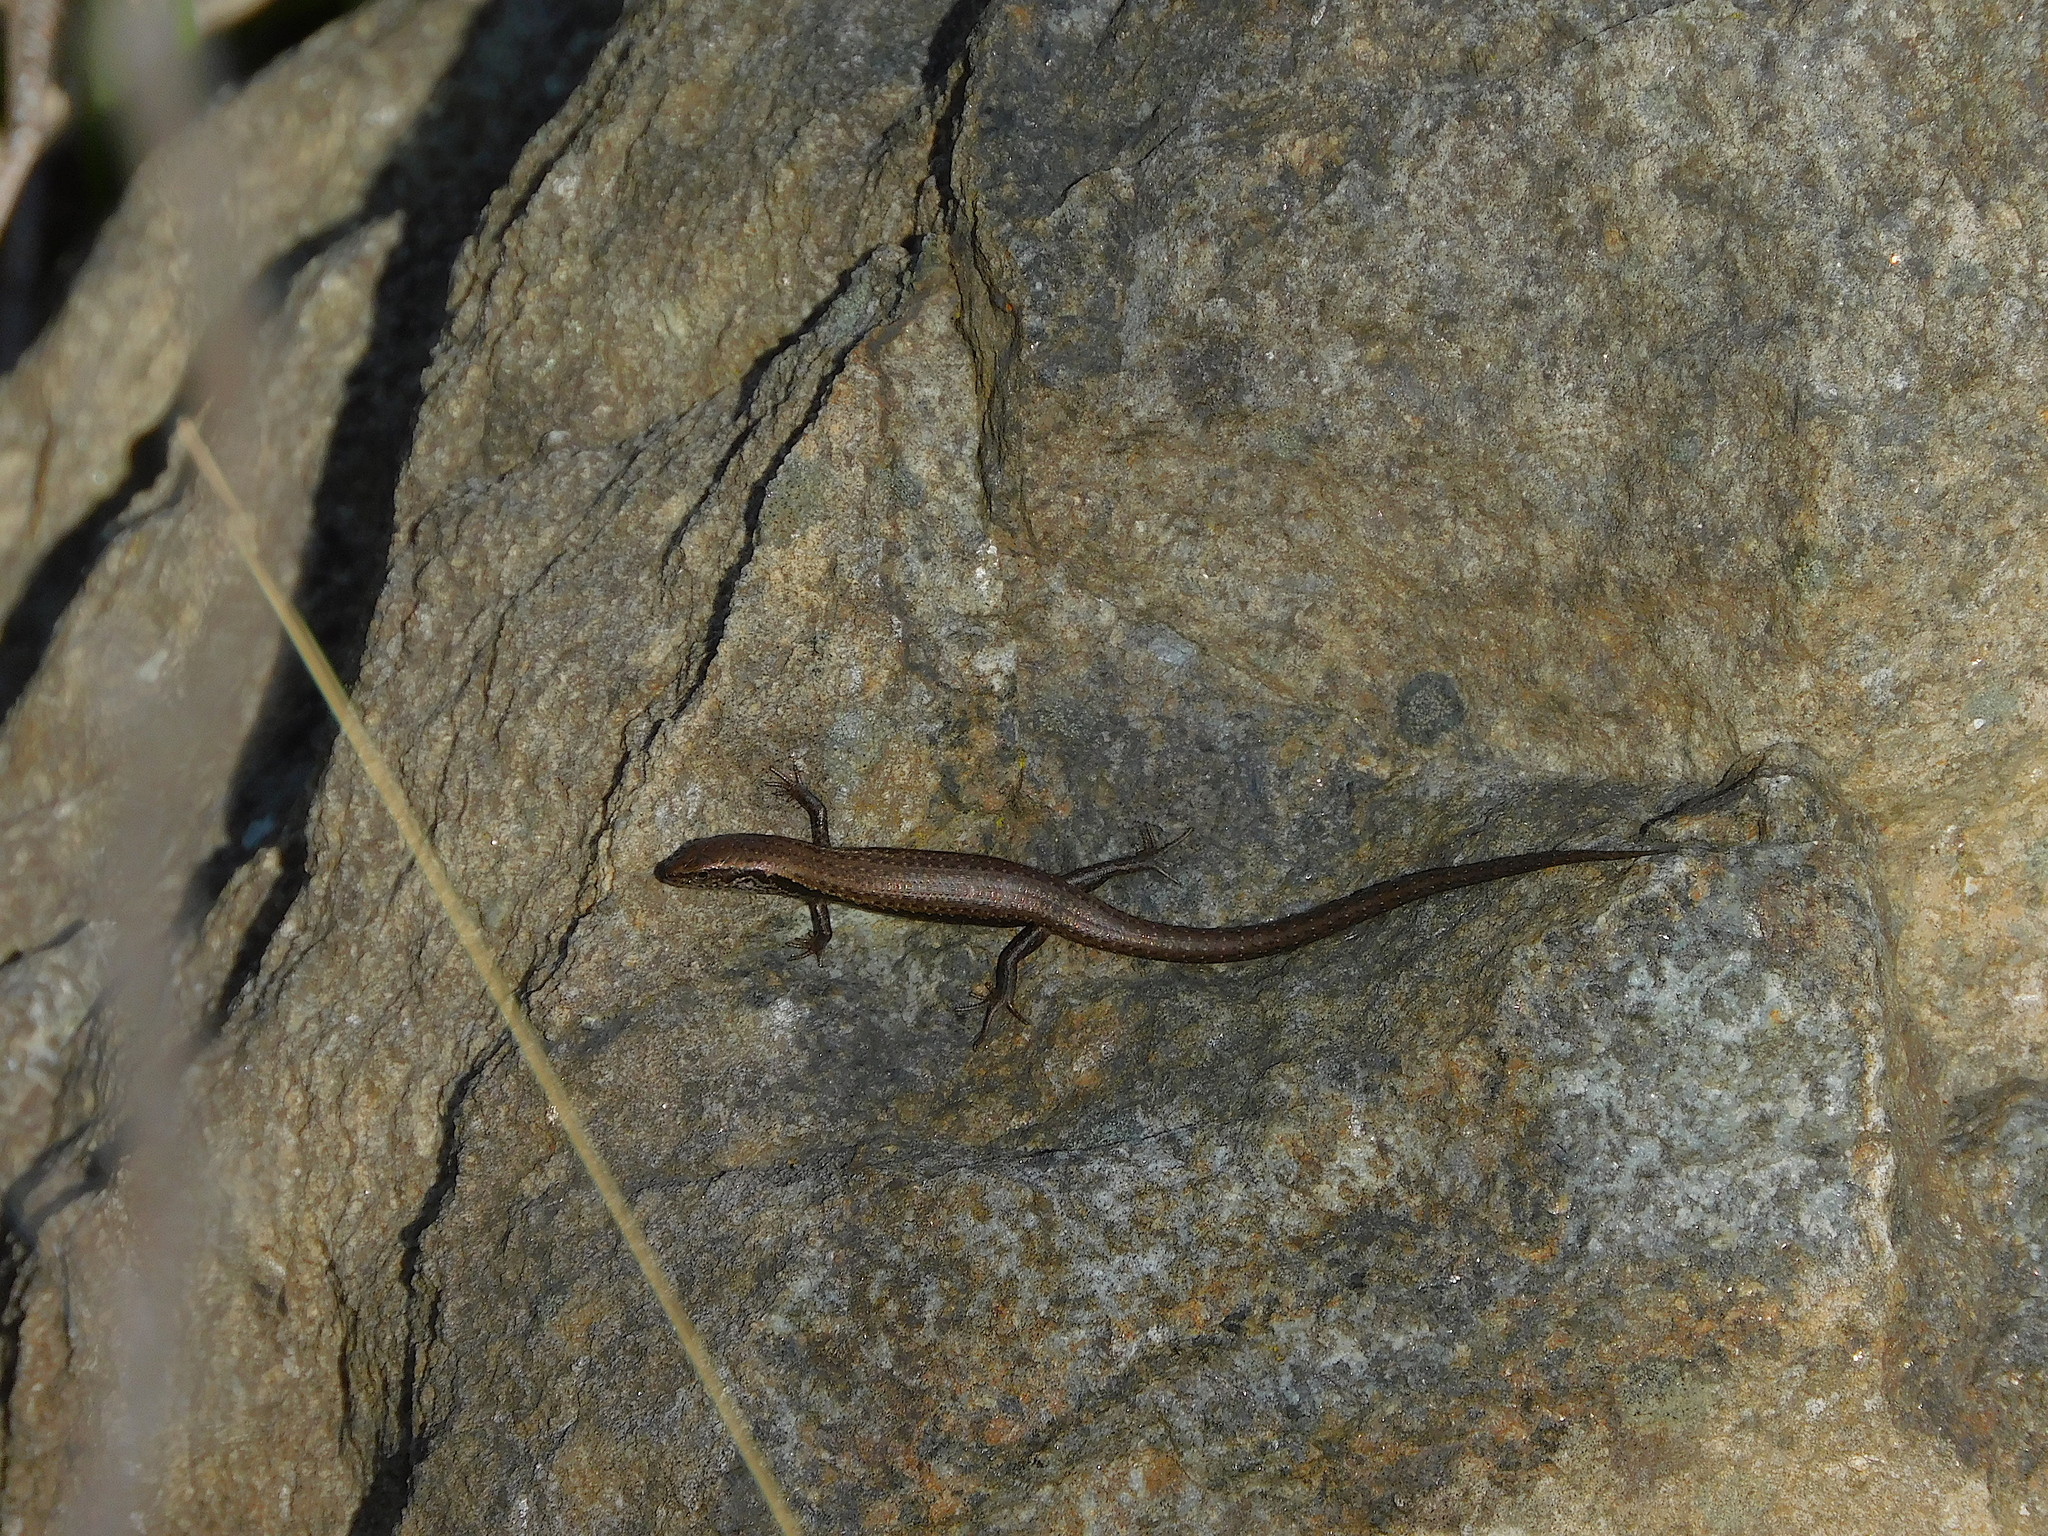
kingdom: Animalia
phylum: Chordata
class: Squamata
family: Scincidae
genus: Carinascincus
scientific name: Carinascincus metallicus
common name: Metallic cool-skink
